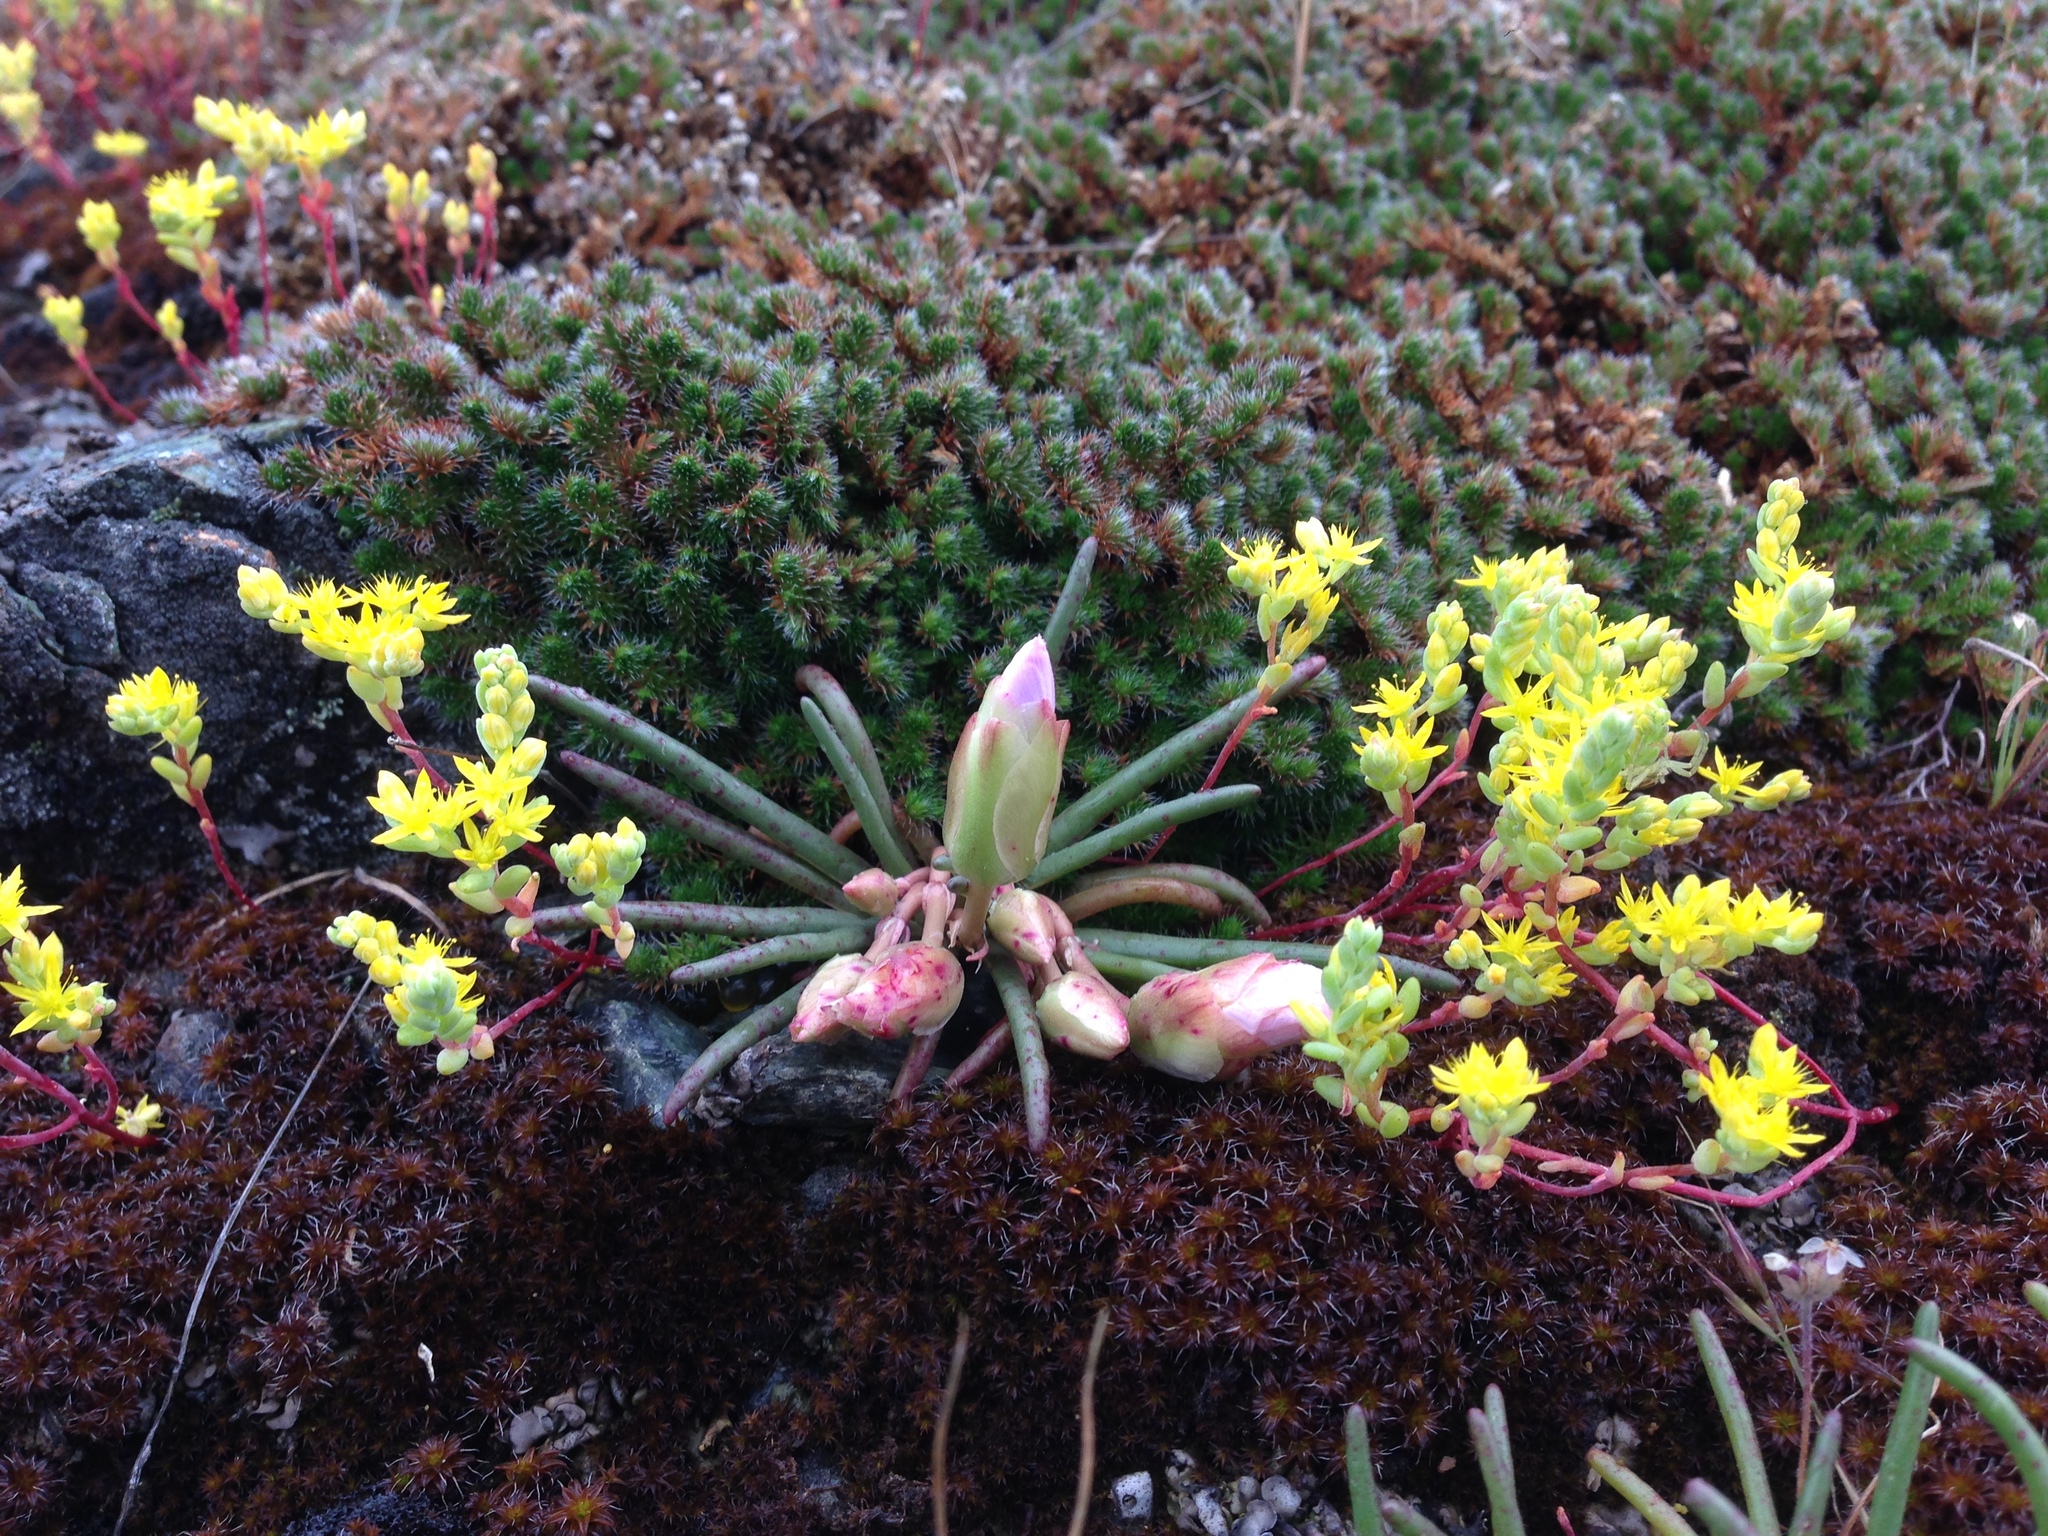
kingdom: Plantae
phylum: Tracheophyta
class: Magnoliopsida
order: Caryophyllales
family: Montiaceae
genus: Lewisia
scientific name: Lewisia rediviva
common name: Bitter-root
